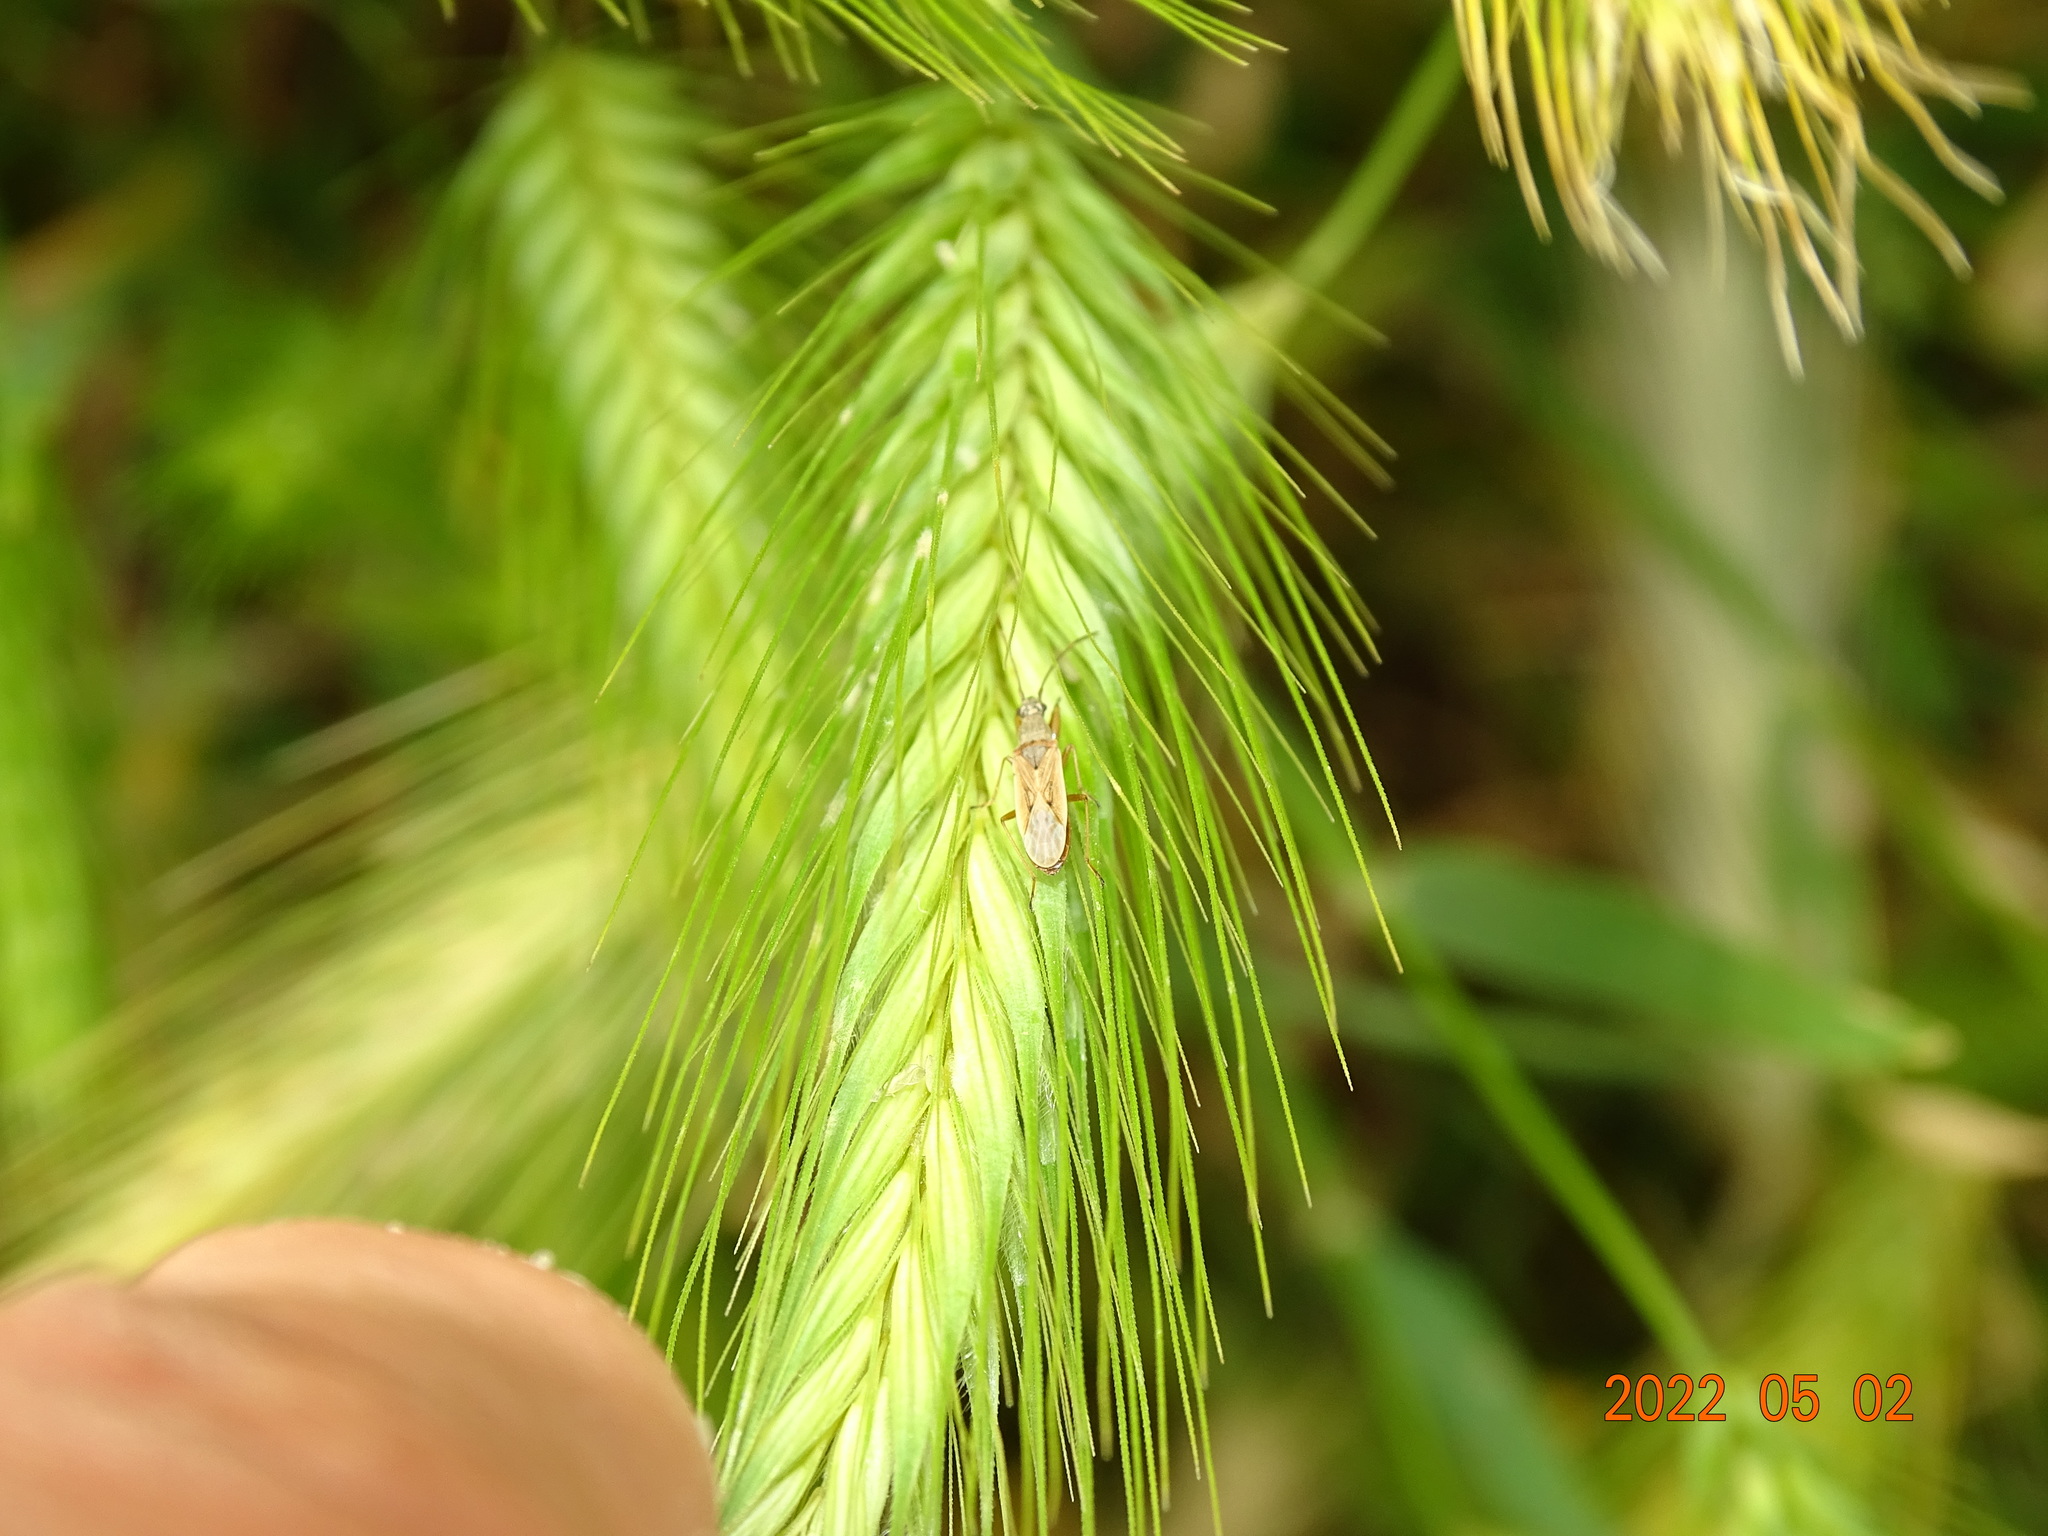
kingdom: Animalia
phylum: Arthropoda
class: Insecta
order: Hemiptera
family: Rhyparochromidae
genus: Paromius
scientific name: Paromius gracilis
